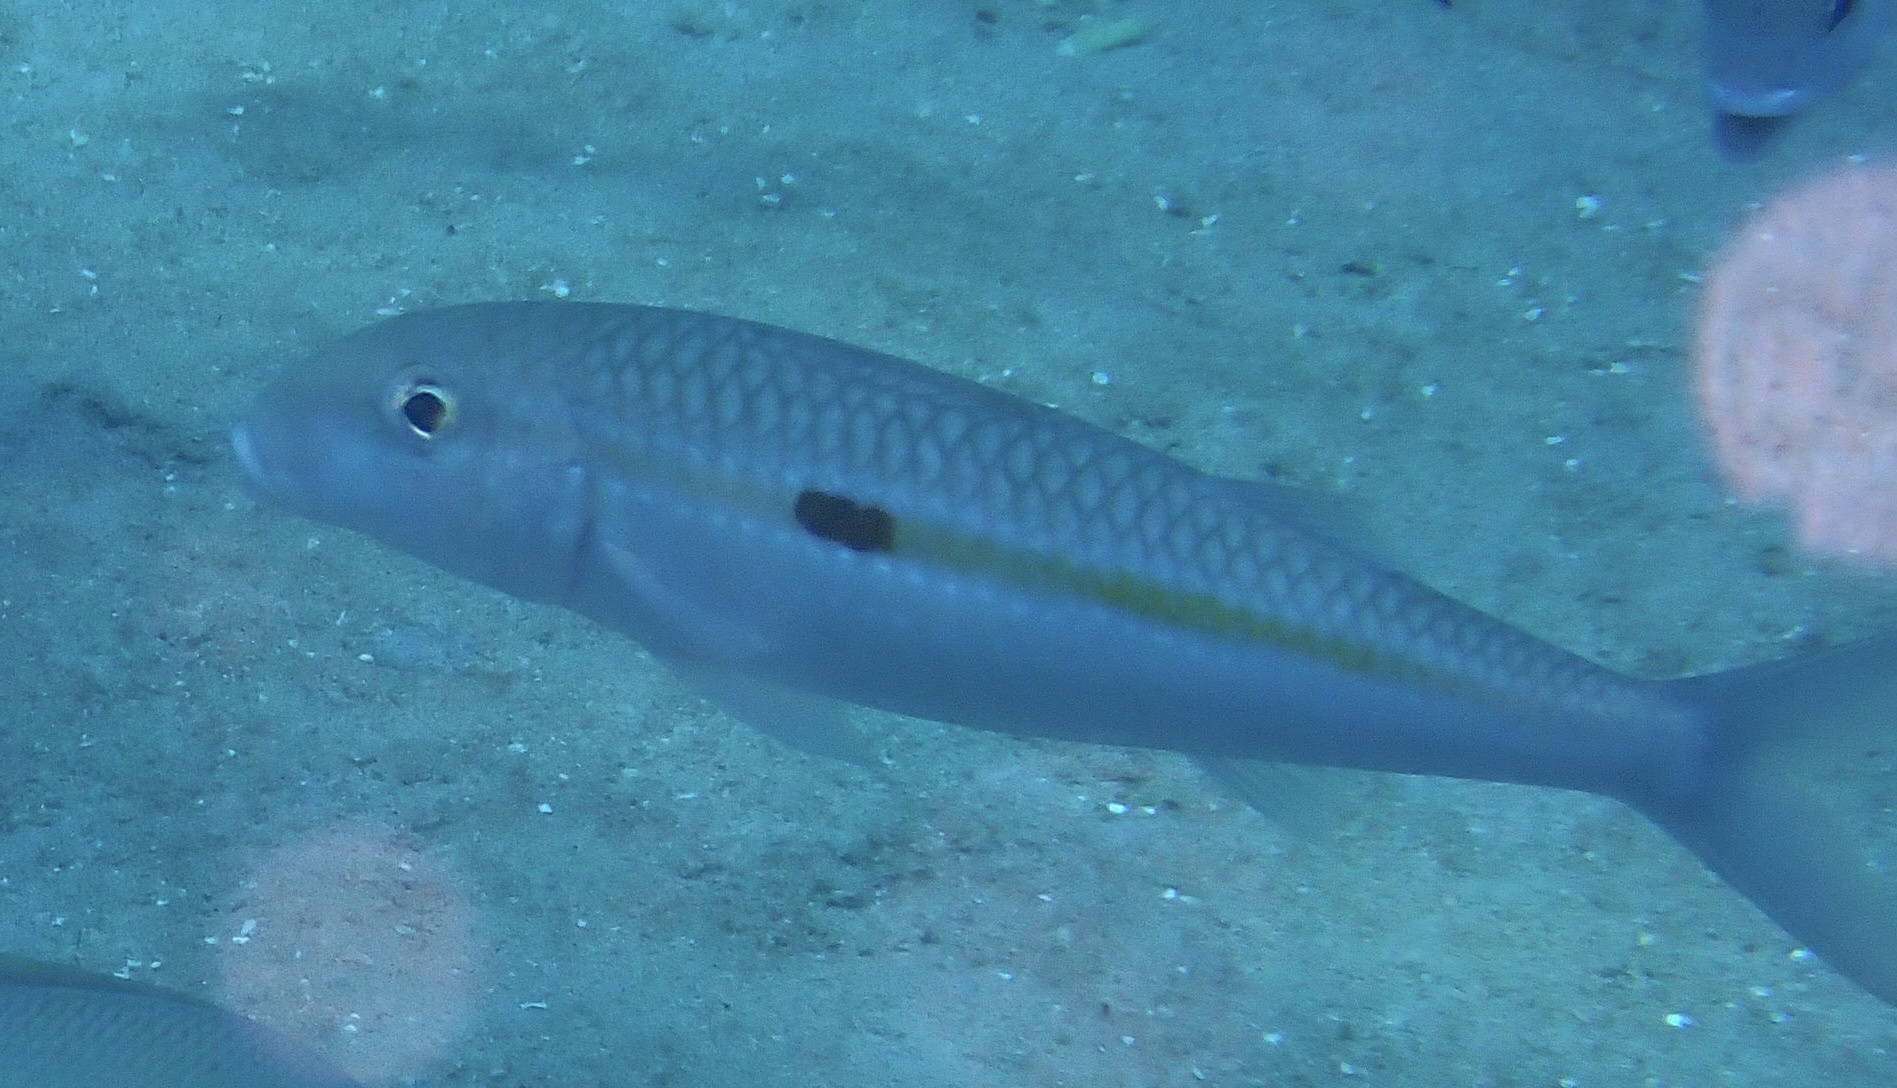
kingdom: Animalia
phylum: Chordata
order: Perciformes
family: Mullidae
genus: Mulloidichthys
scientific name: Mulloidichthys flavolineatus
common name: Yellowstripe goatfish
